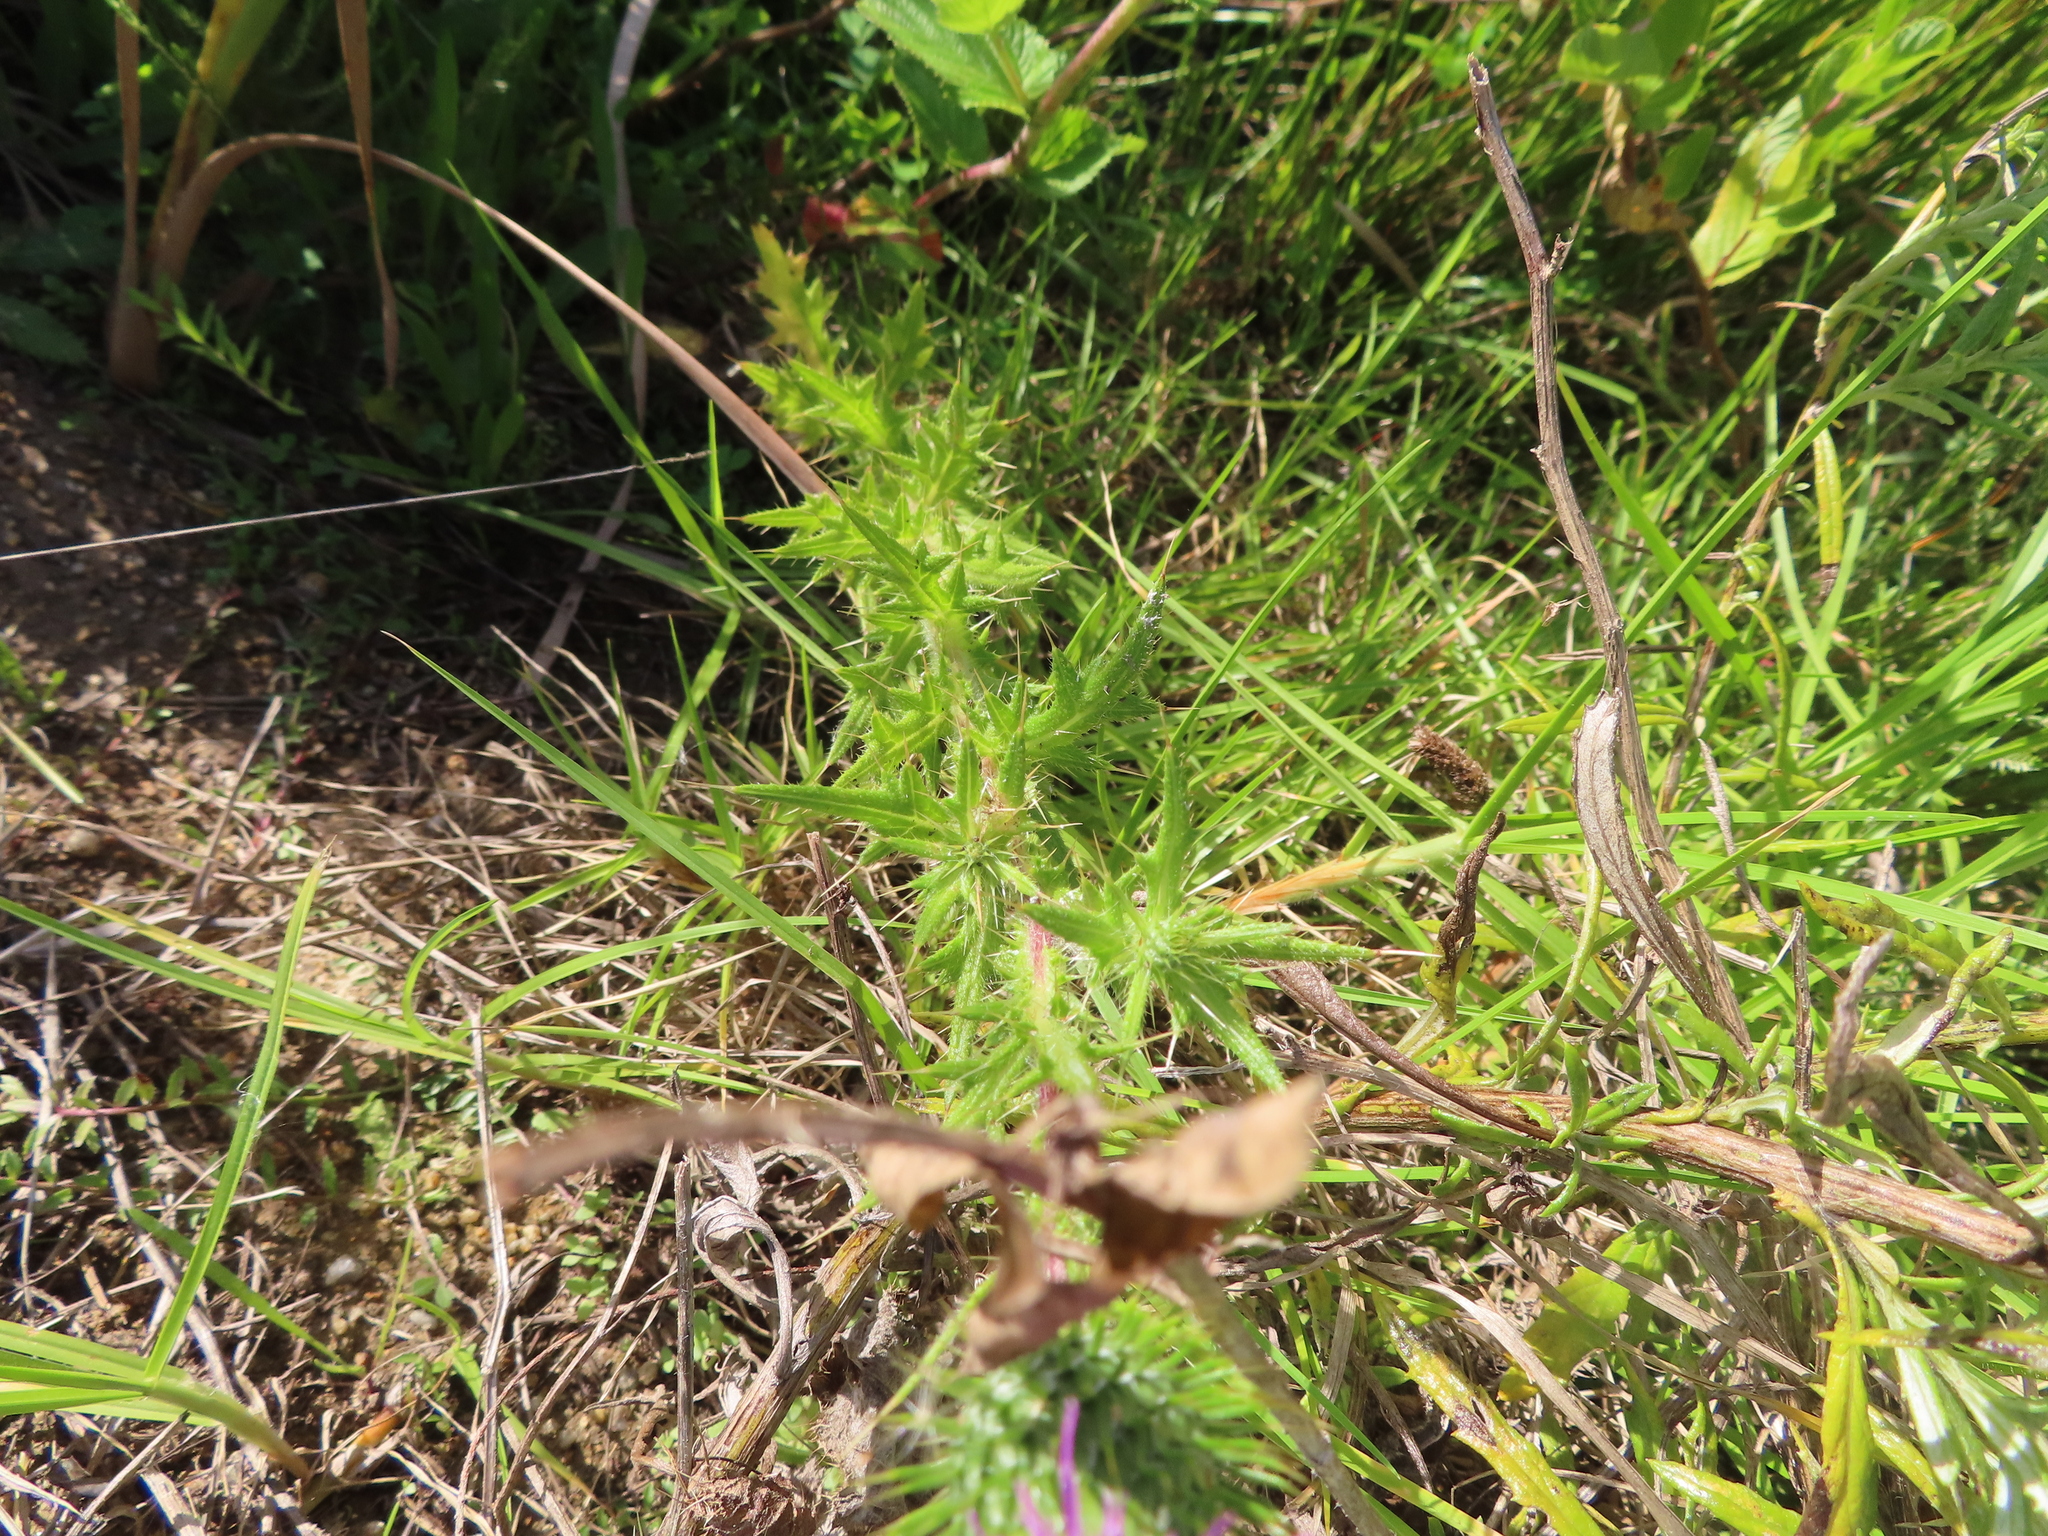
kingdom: Plantae
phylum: Tracheophyta
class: Magnoliopsida
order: Asterales
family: Asteraceae
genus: Cirsium
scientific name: Cirsium vulgare
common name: Bull thistle
